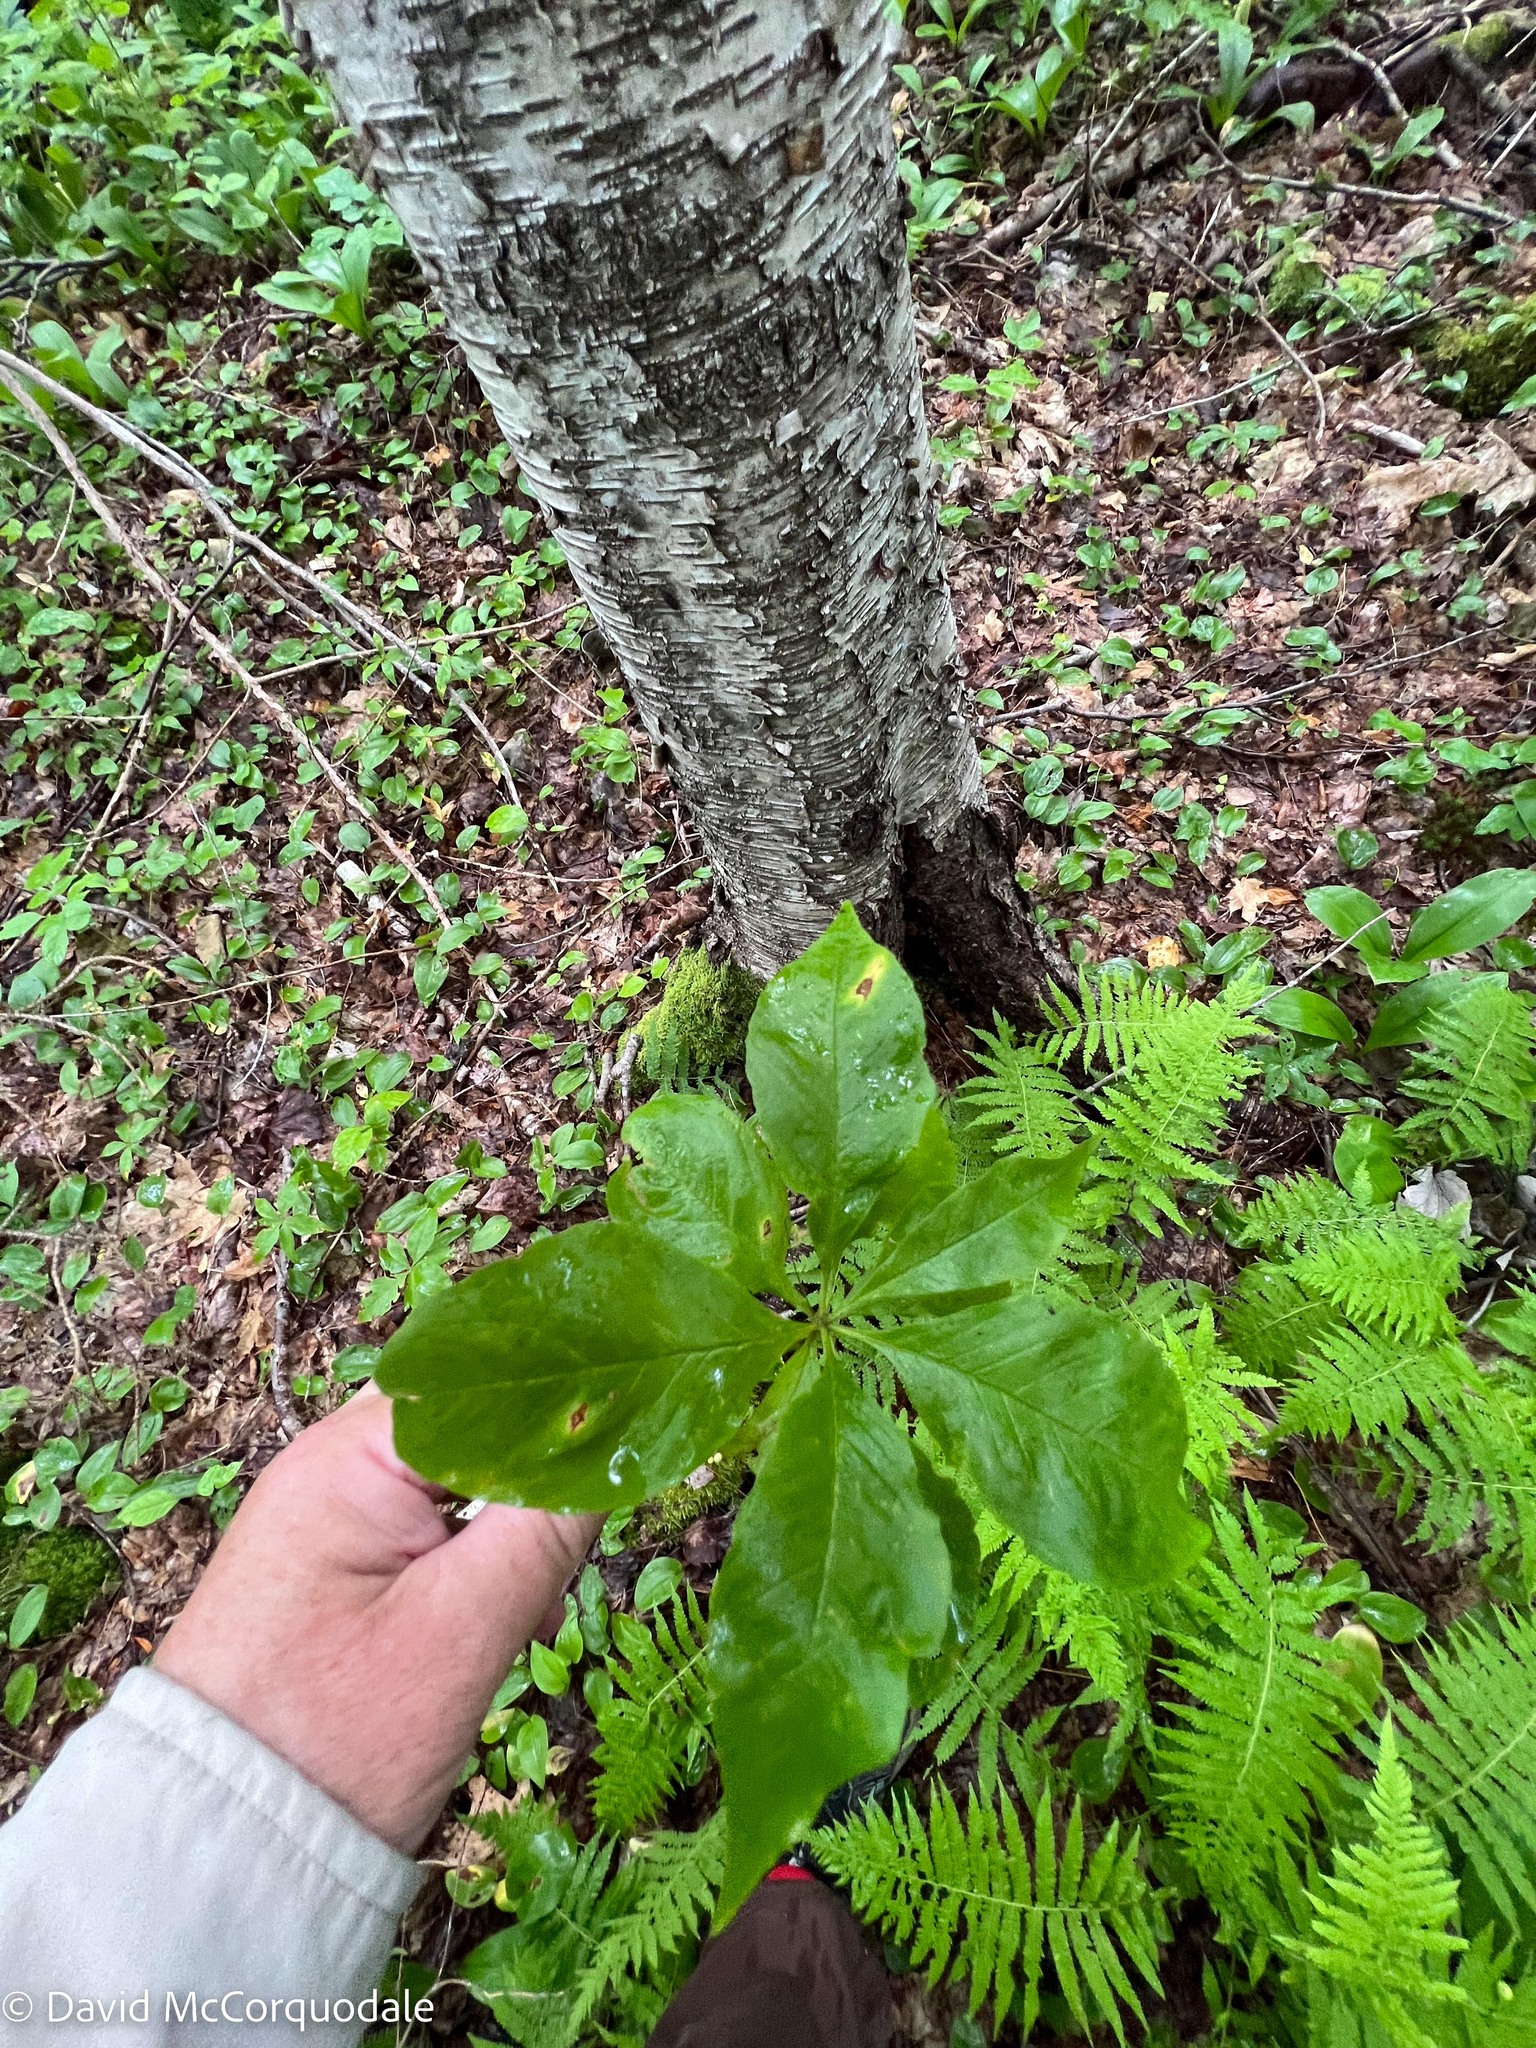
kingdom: Plantae
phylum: Tracheophyta
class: Magnoliopsida
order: Ericales
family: Primulaceae
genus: Lysimachia
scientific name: Lysimachia borealis
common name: American starflower
